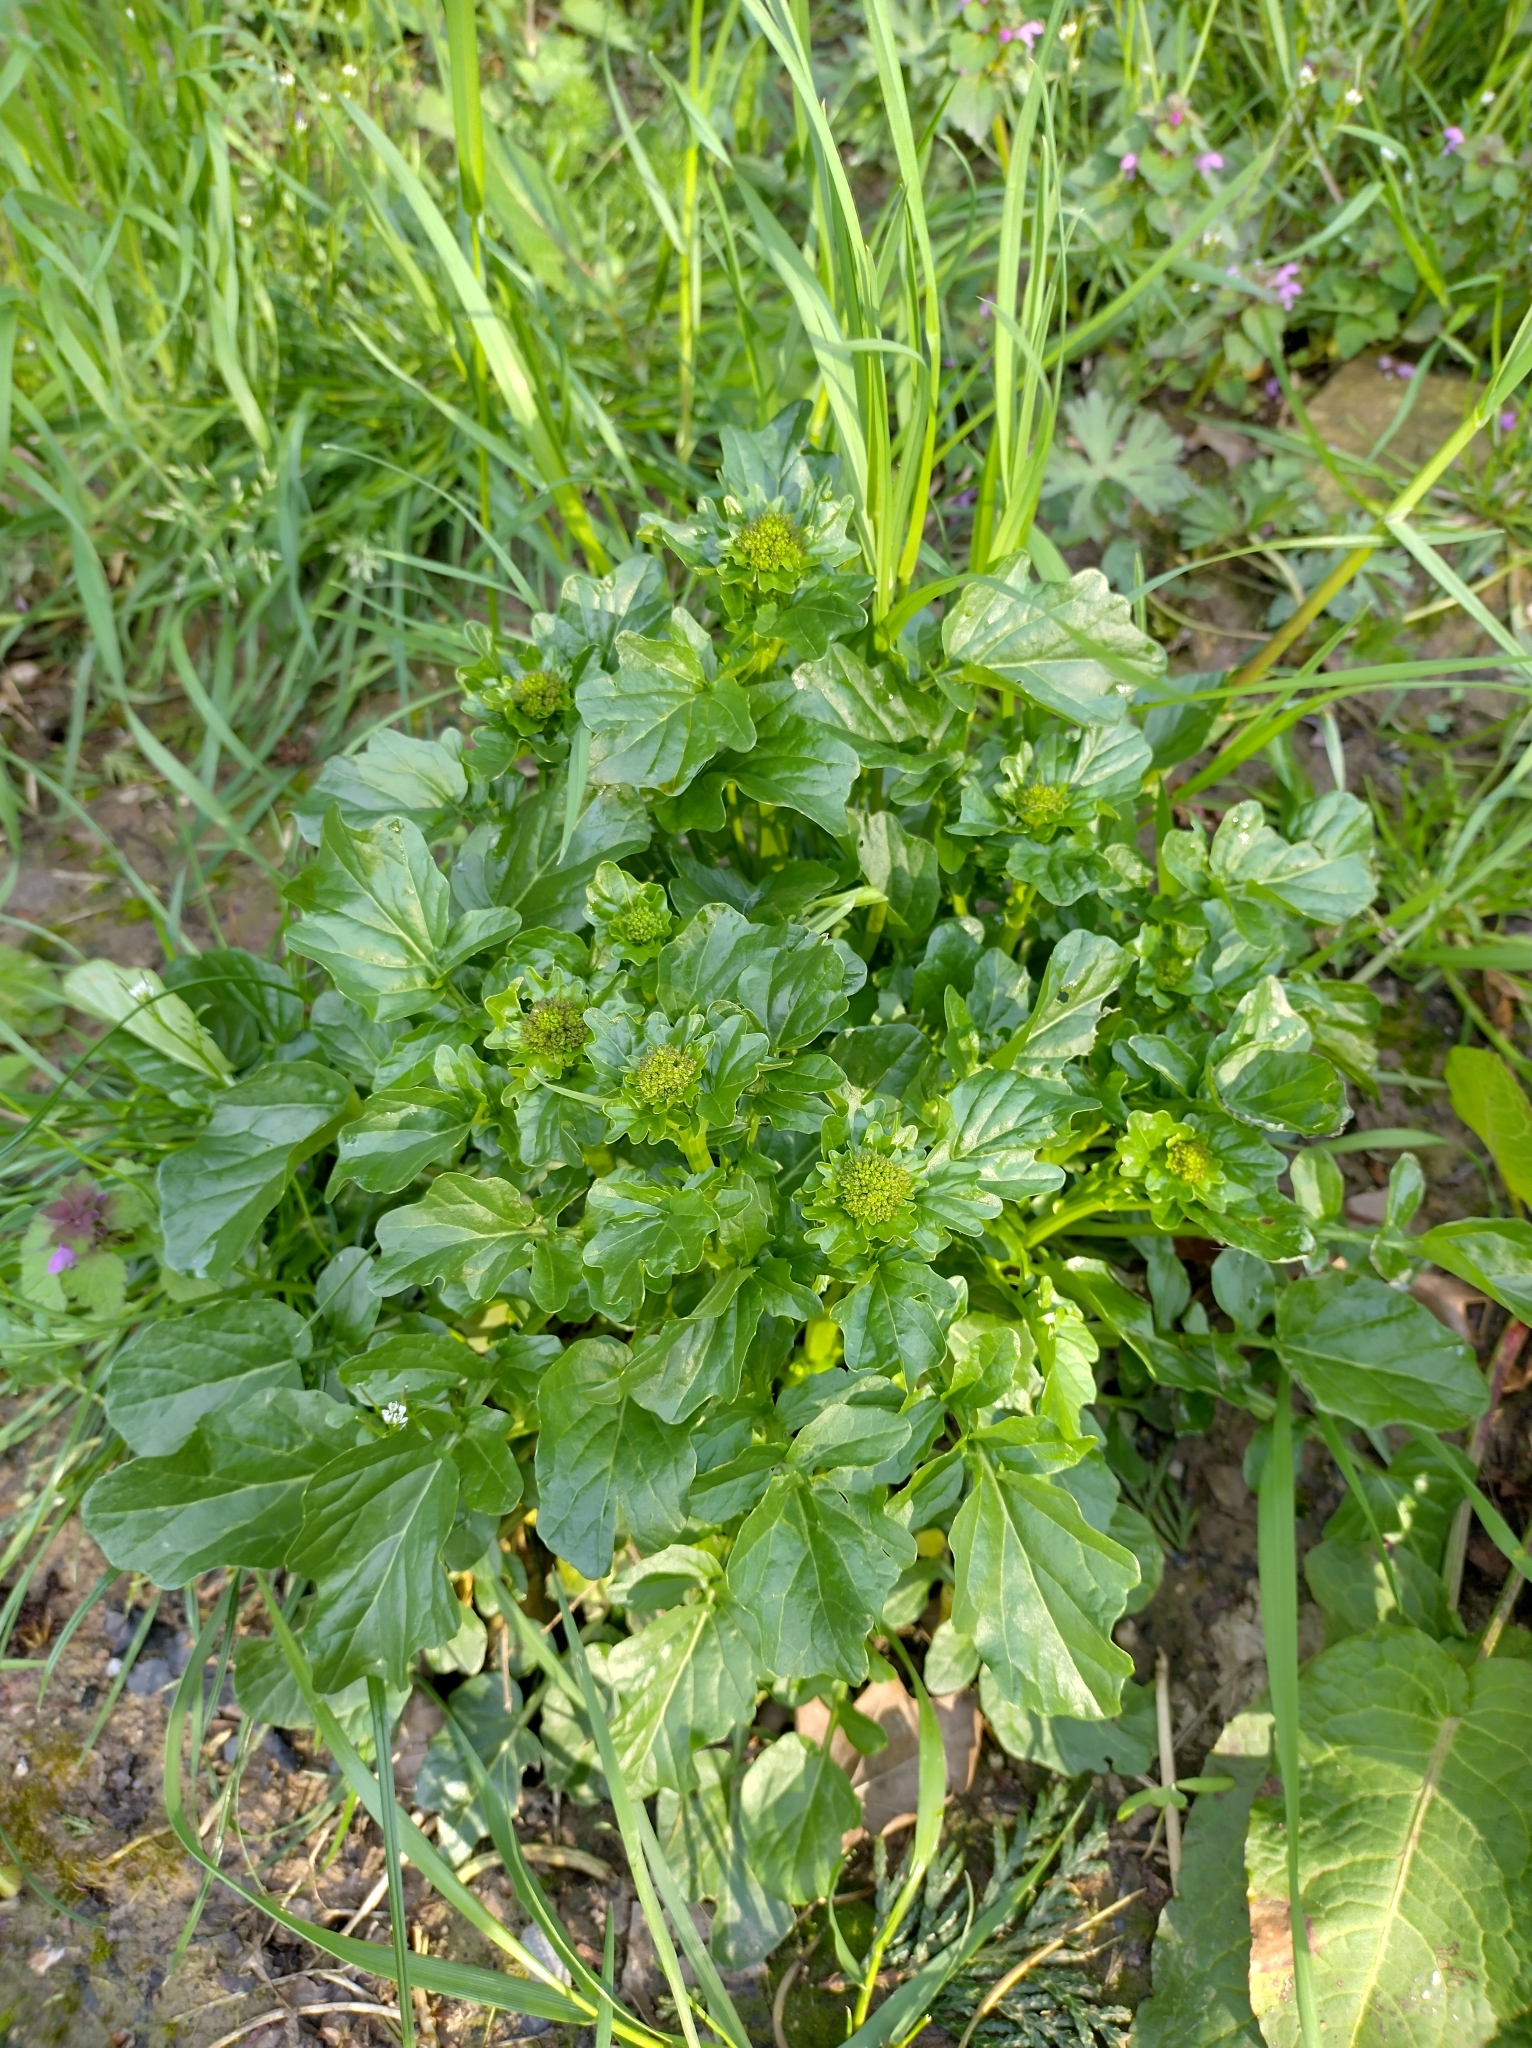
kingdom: Plantae
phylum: Tracheophyta
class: Magnoliopsida
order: Brassicales
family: Brassicaceae
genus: Barbarea
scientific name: Barbarea vulgaris
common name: Cressy-greens
